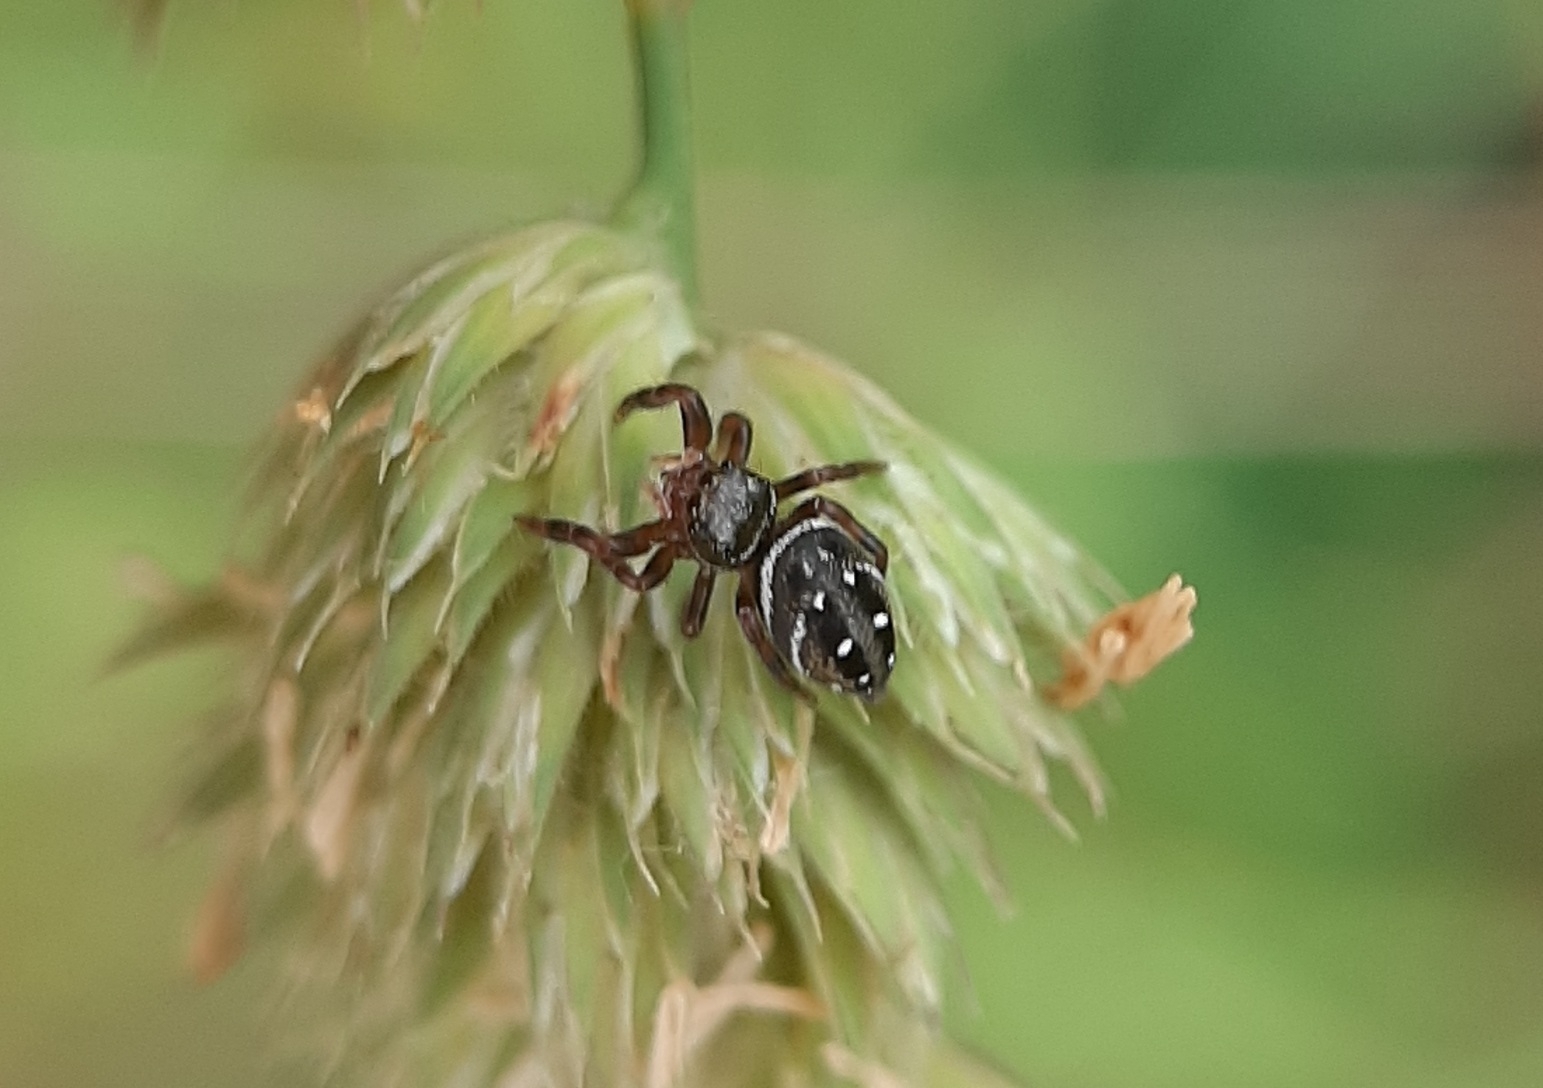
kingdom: Animalia
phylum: Arthropoda
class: Arachnida
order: Araneae
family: Salticidae
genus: Phidippus
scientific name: Phidippus clarus
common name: Brilliant jumping spider
